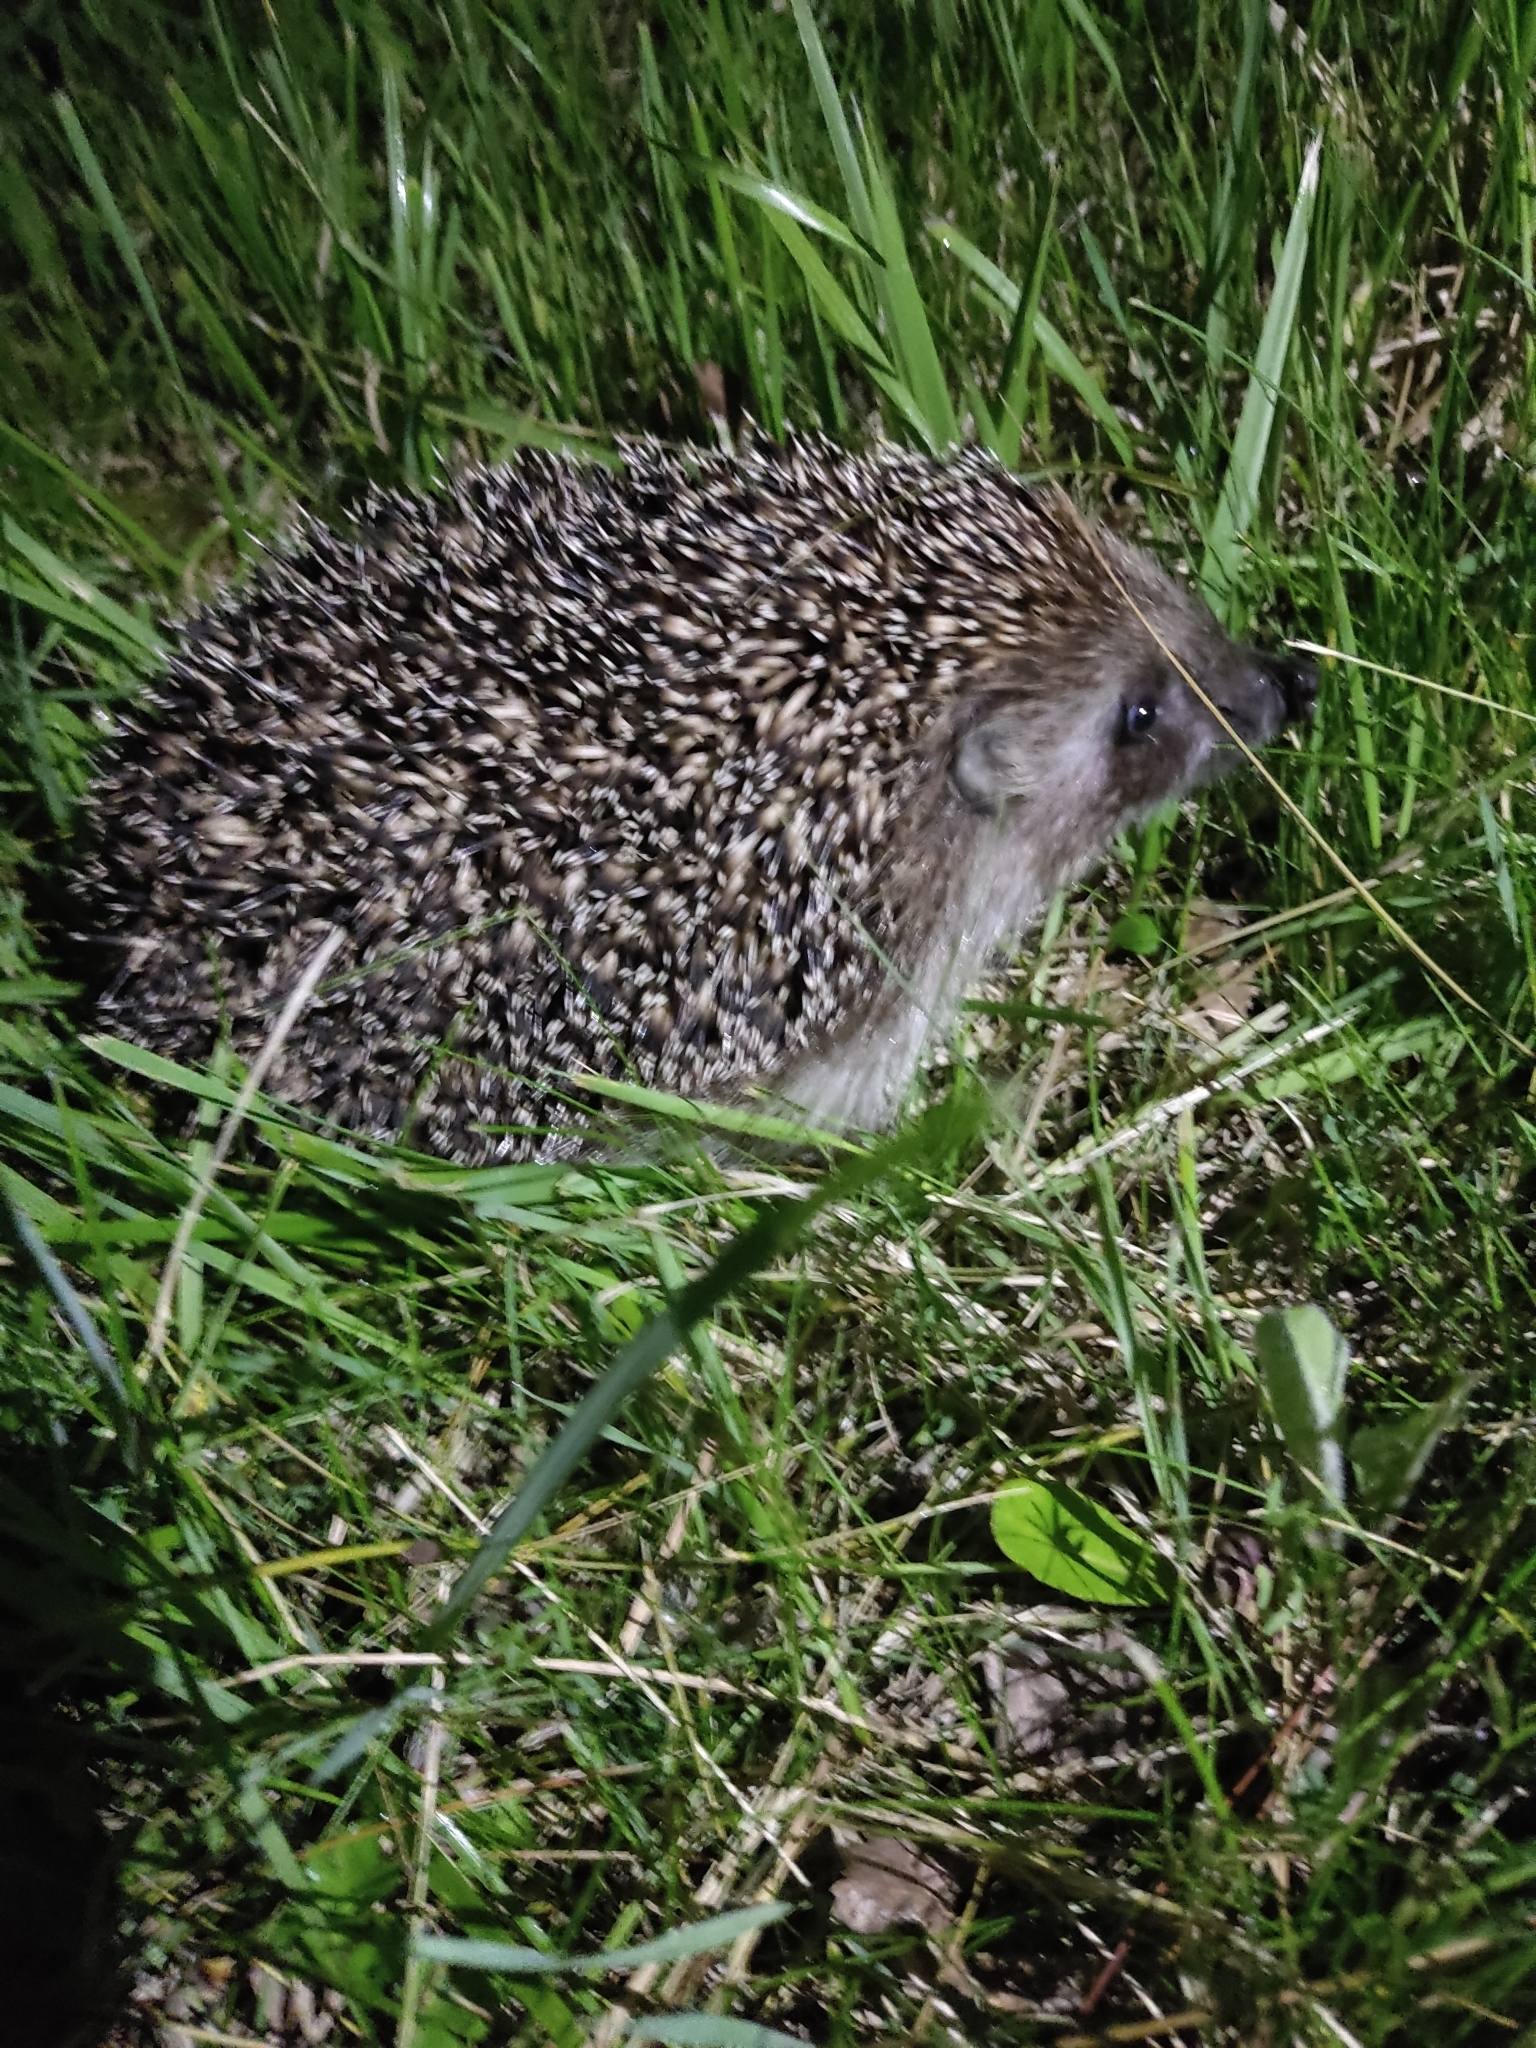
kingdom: Animalia
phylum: Chordata
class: Mammalia
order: Erinaceomorpha
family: Erinaceidae
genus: Erinaceus
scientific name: Erinaceus roumanicus
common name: Northern white-breasted hedgehog
